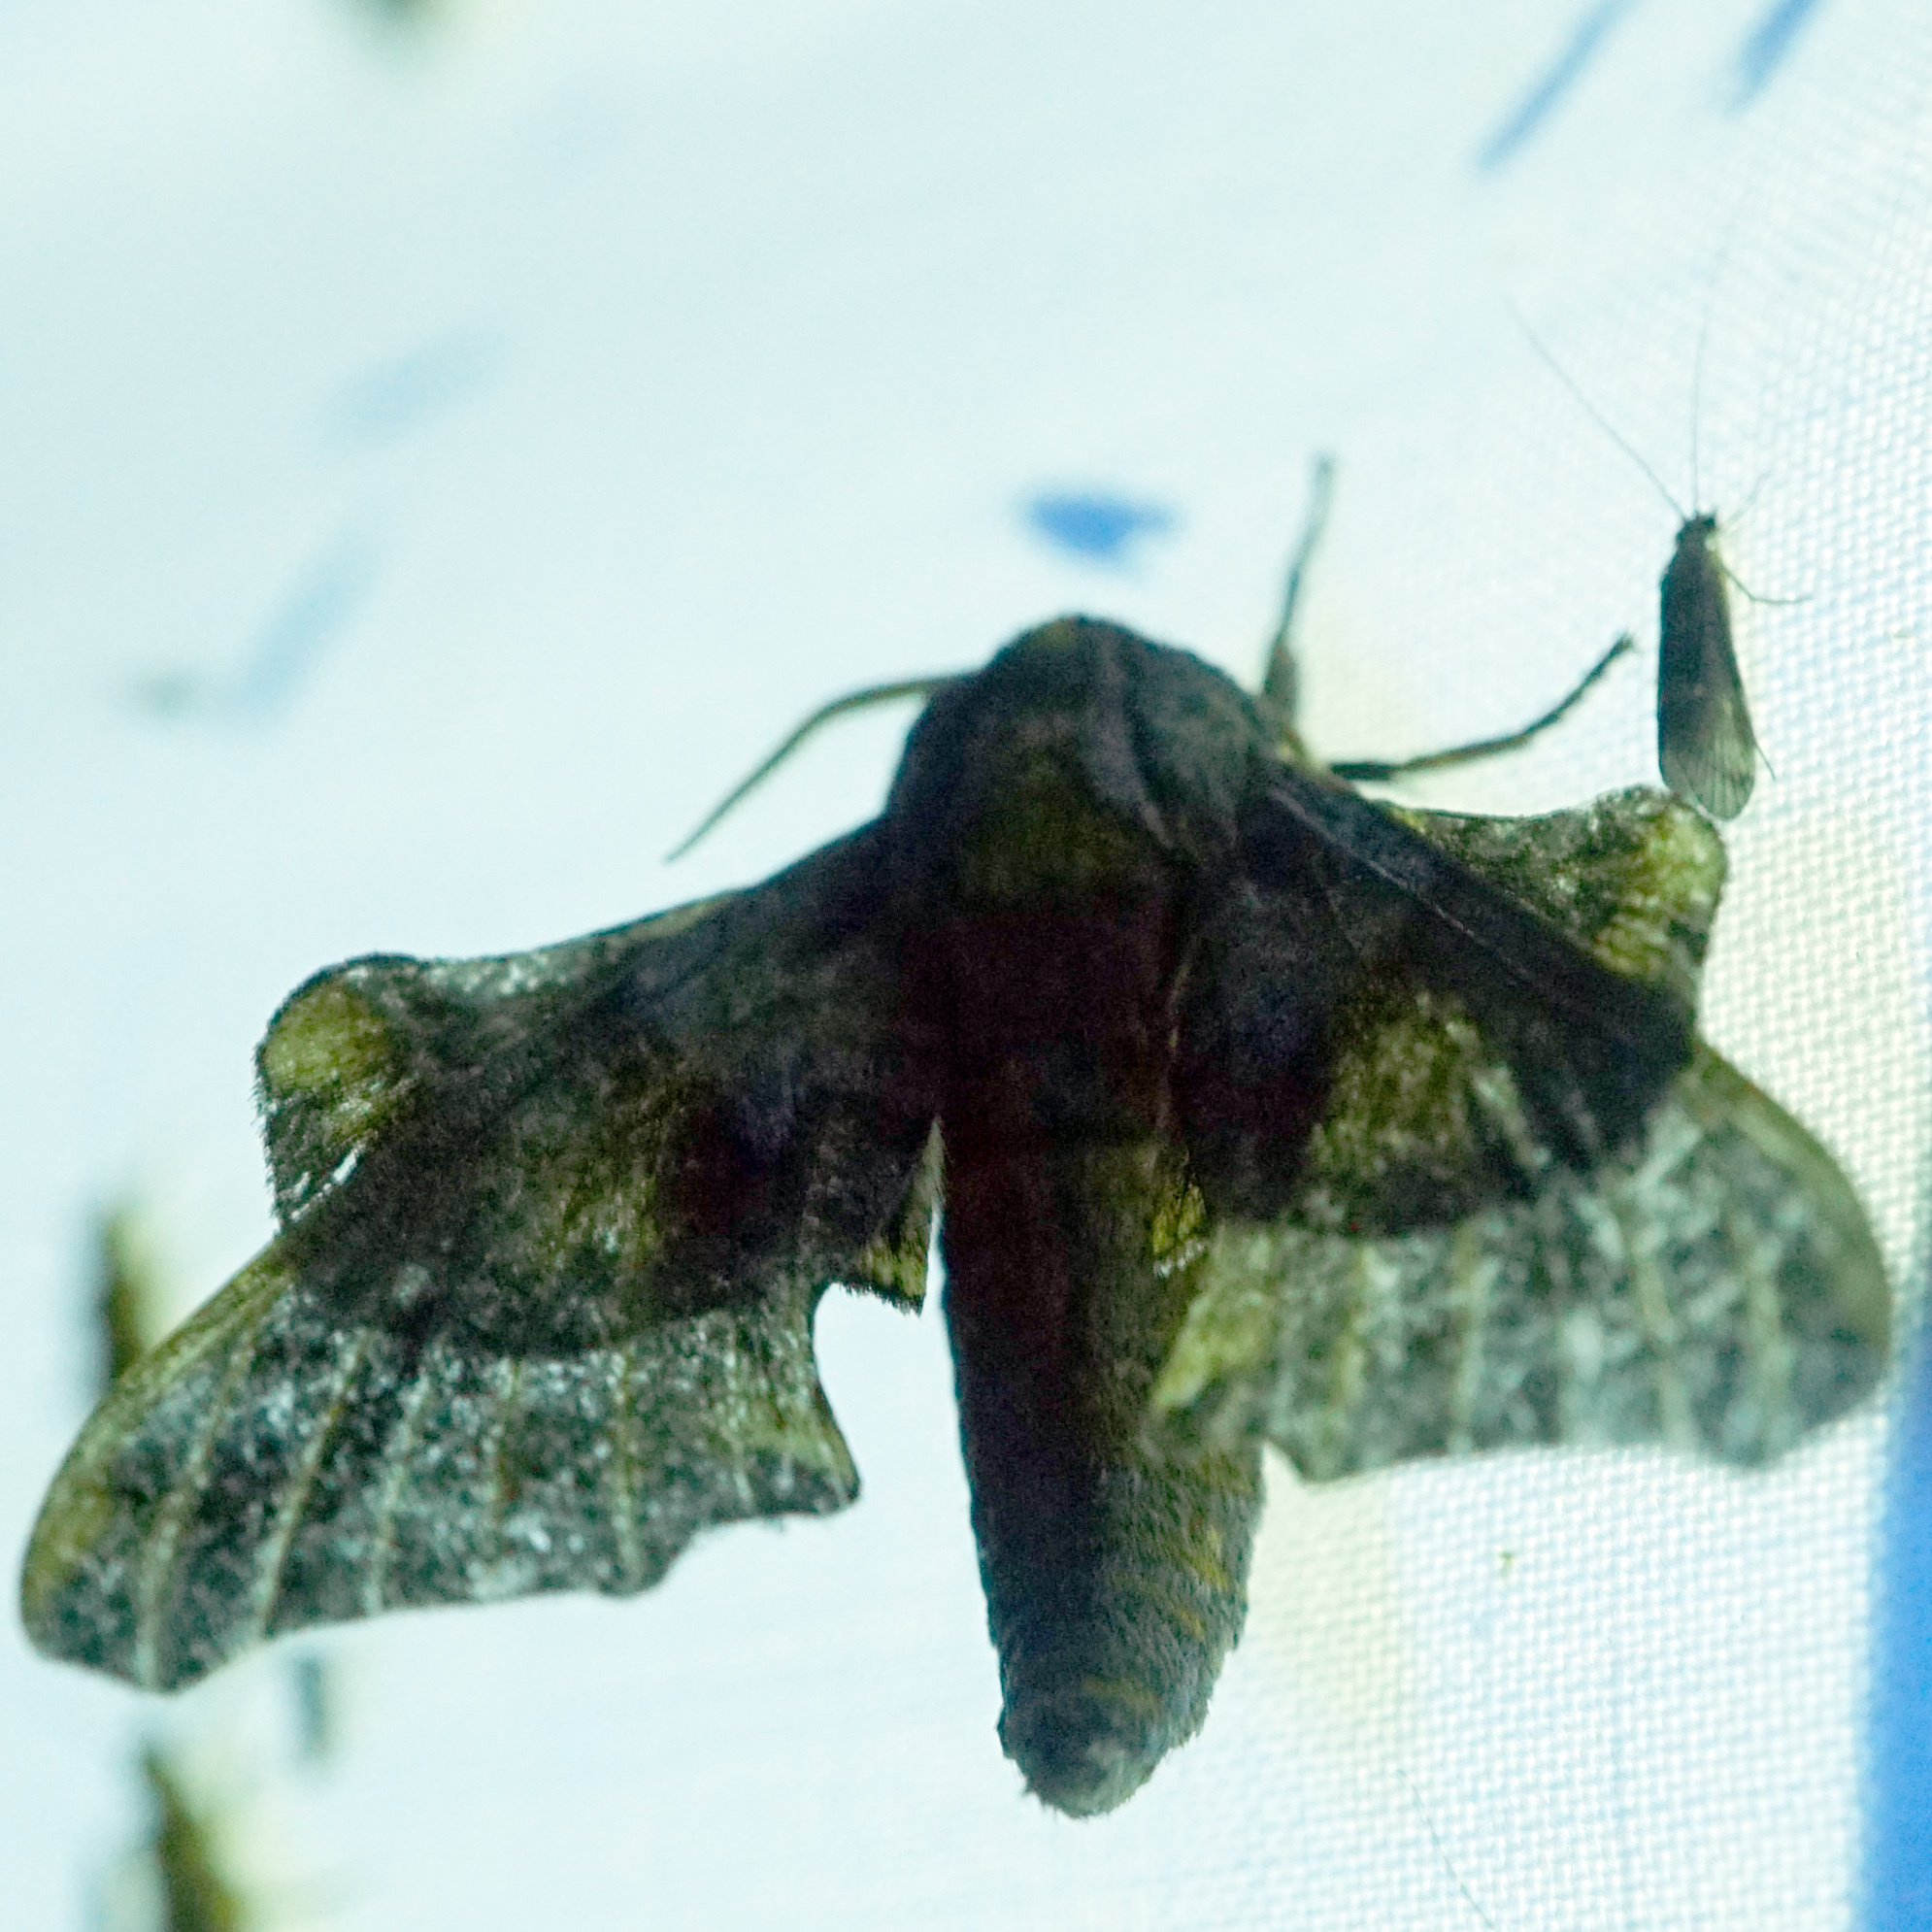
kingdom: Animalia
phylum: Arthropoda
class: Insecta
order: Lepidoptera
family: Sphingidae
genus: Paonias
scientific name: Paonias myops
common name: Small-eyed sphinx
